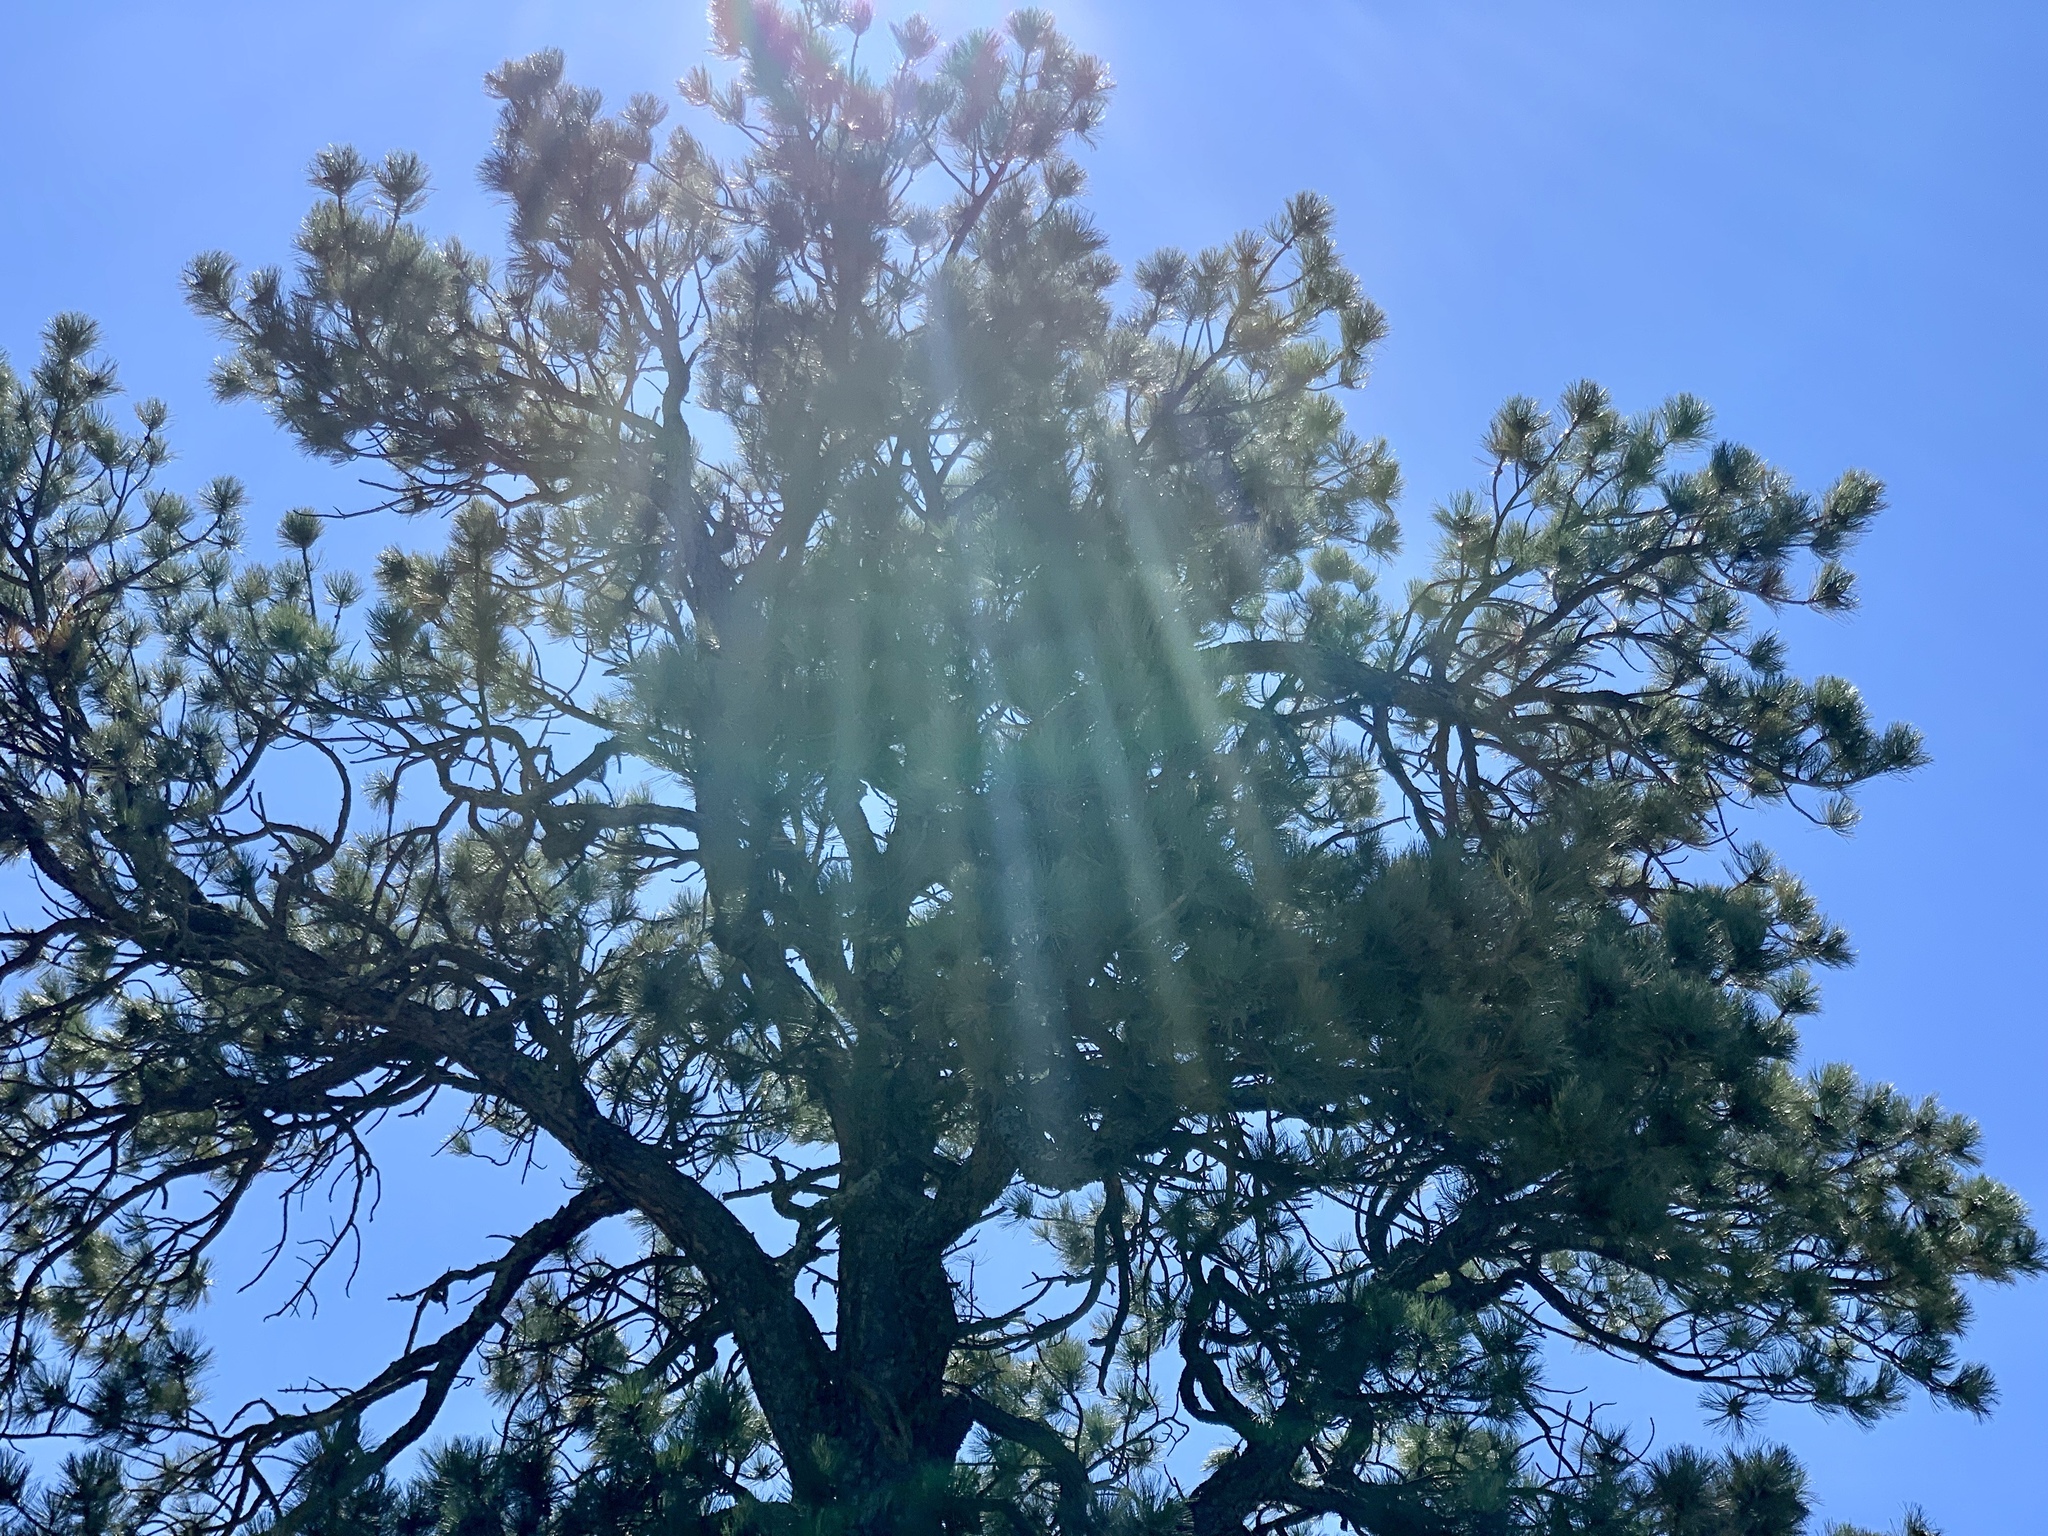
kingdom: Plantae
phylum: Tracheophyta
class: Pinopsida
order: Pinales
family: Pinaceae
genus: Pinus
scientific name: Pinus ponderosa
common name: Western yellow-pine
